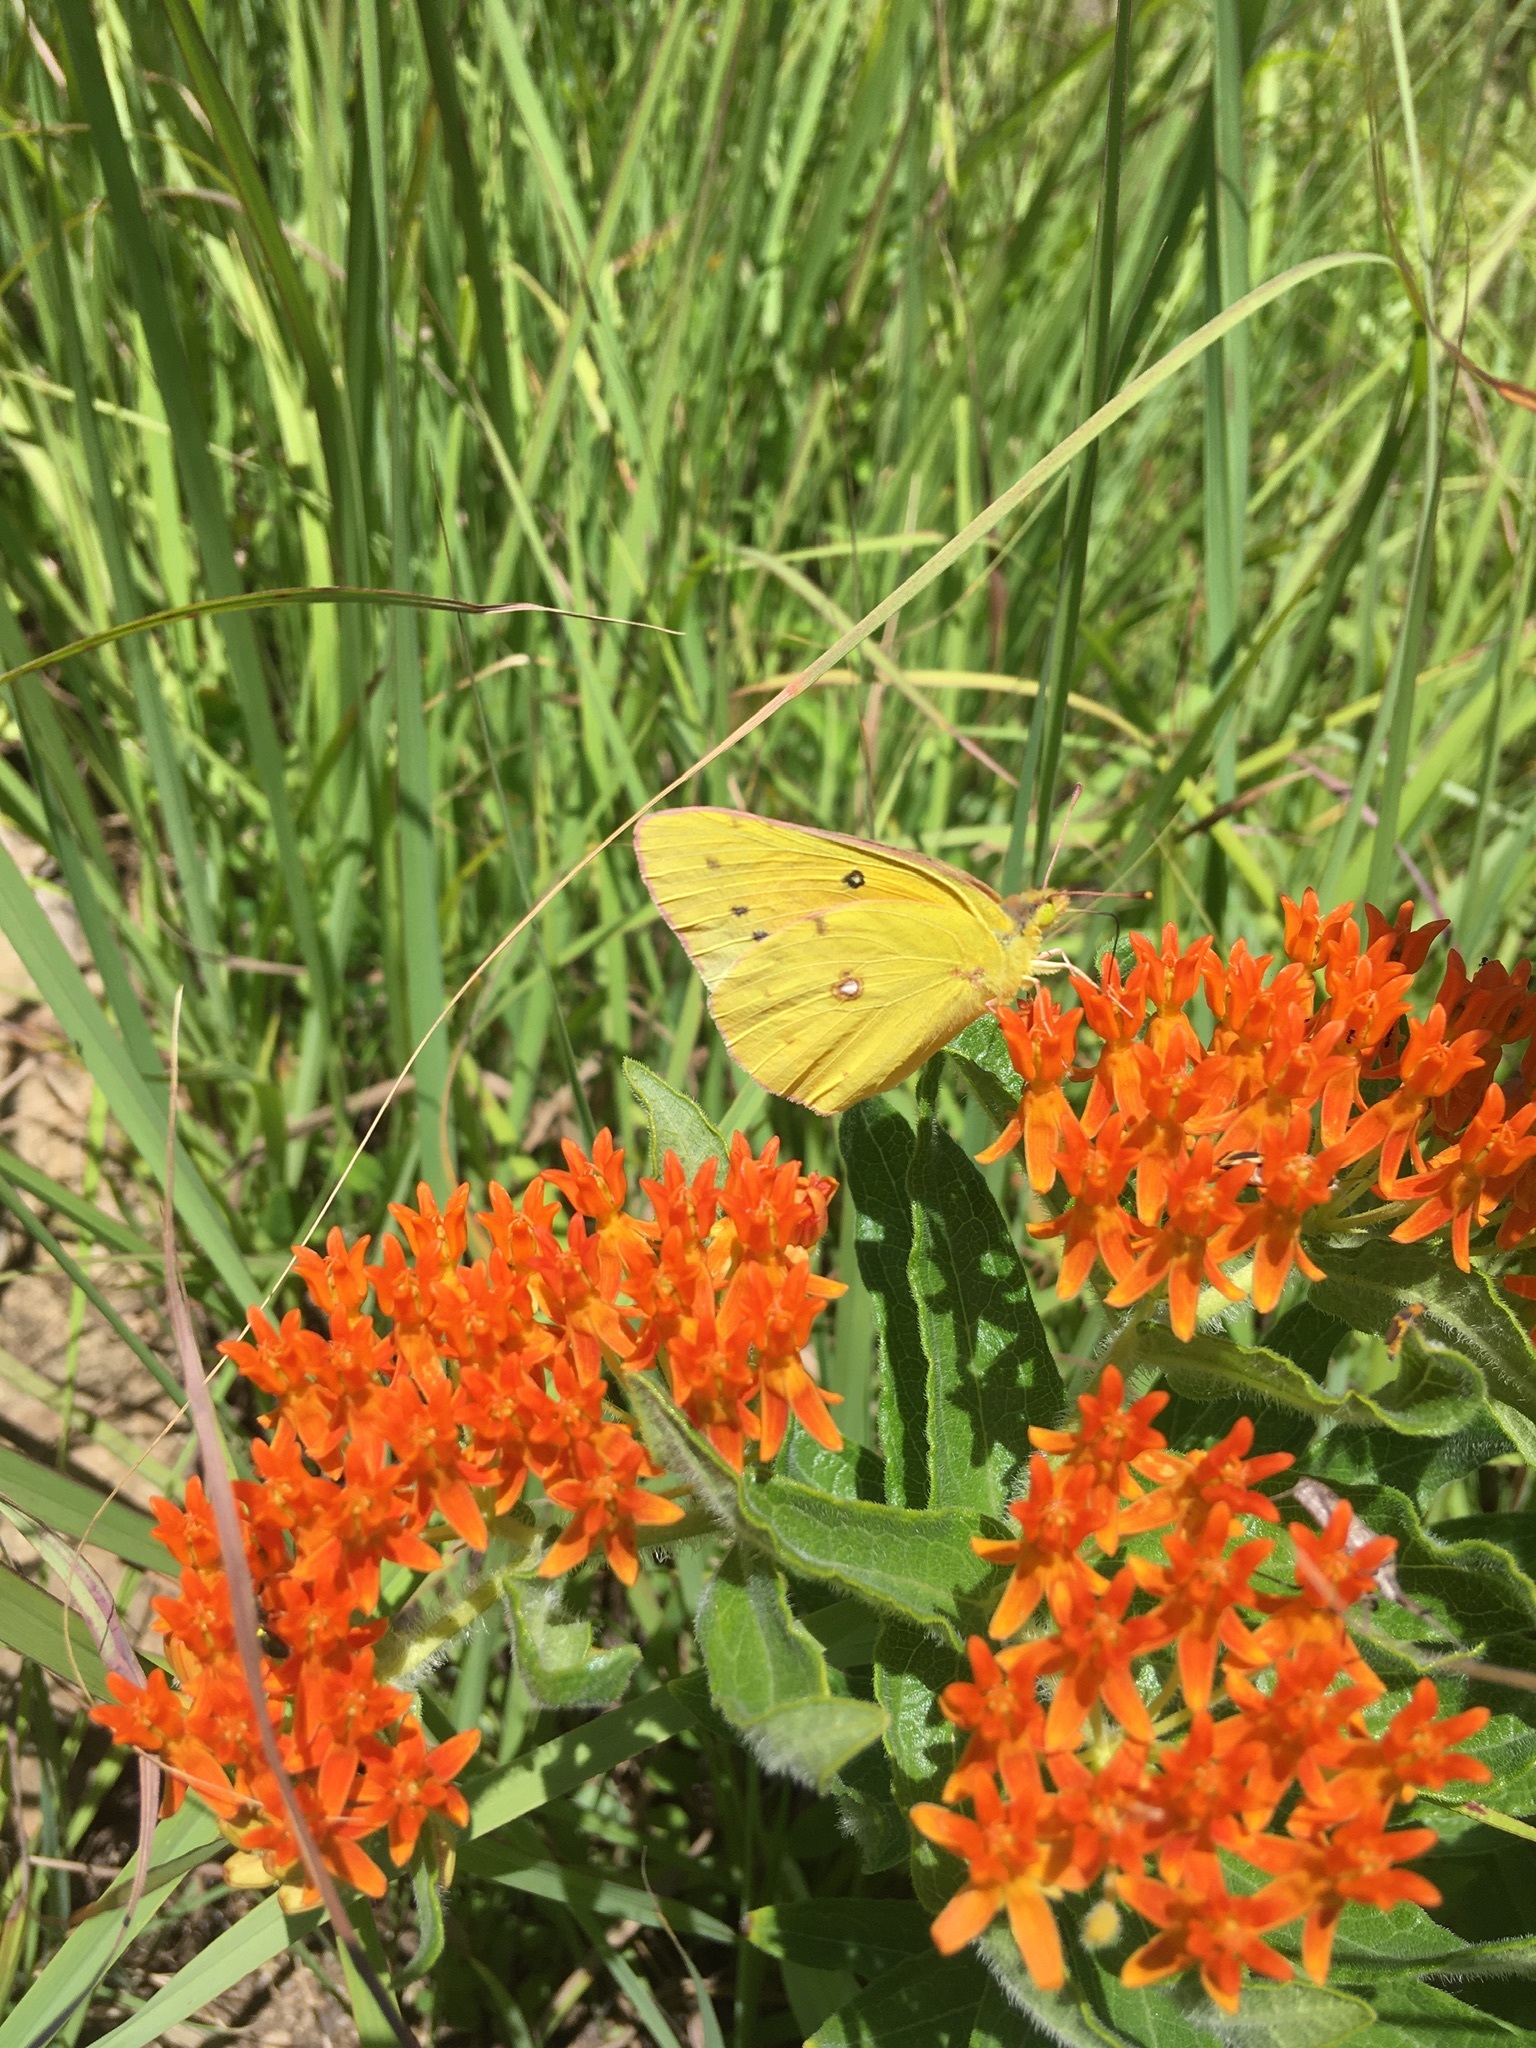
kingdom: Animalia
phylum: Arthropoda
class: Insecta
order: Lepidoptera
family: Pieridae
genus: Colias
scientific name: Colias eurytheme
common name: Alfalfa butterfly
